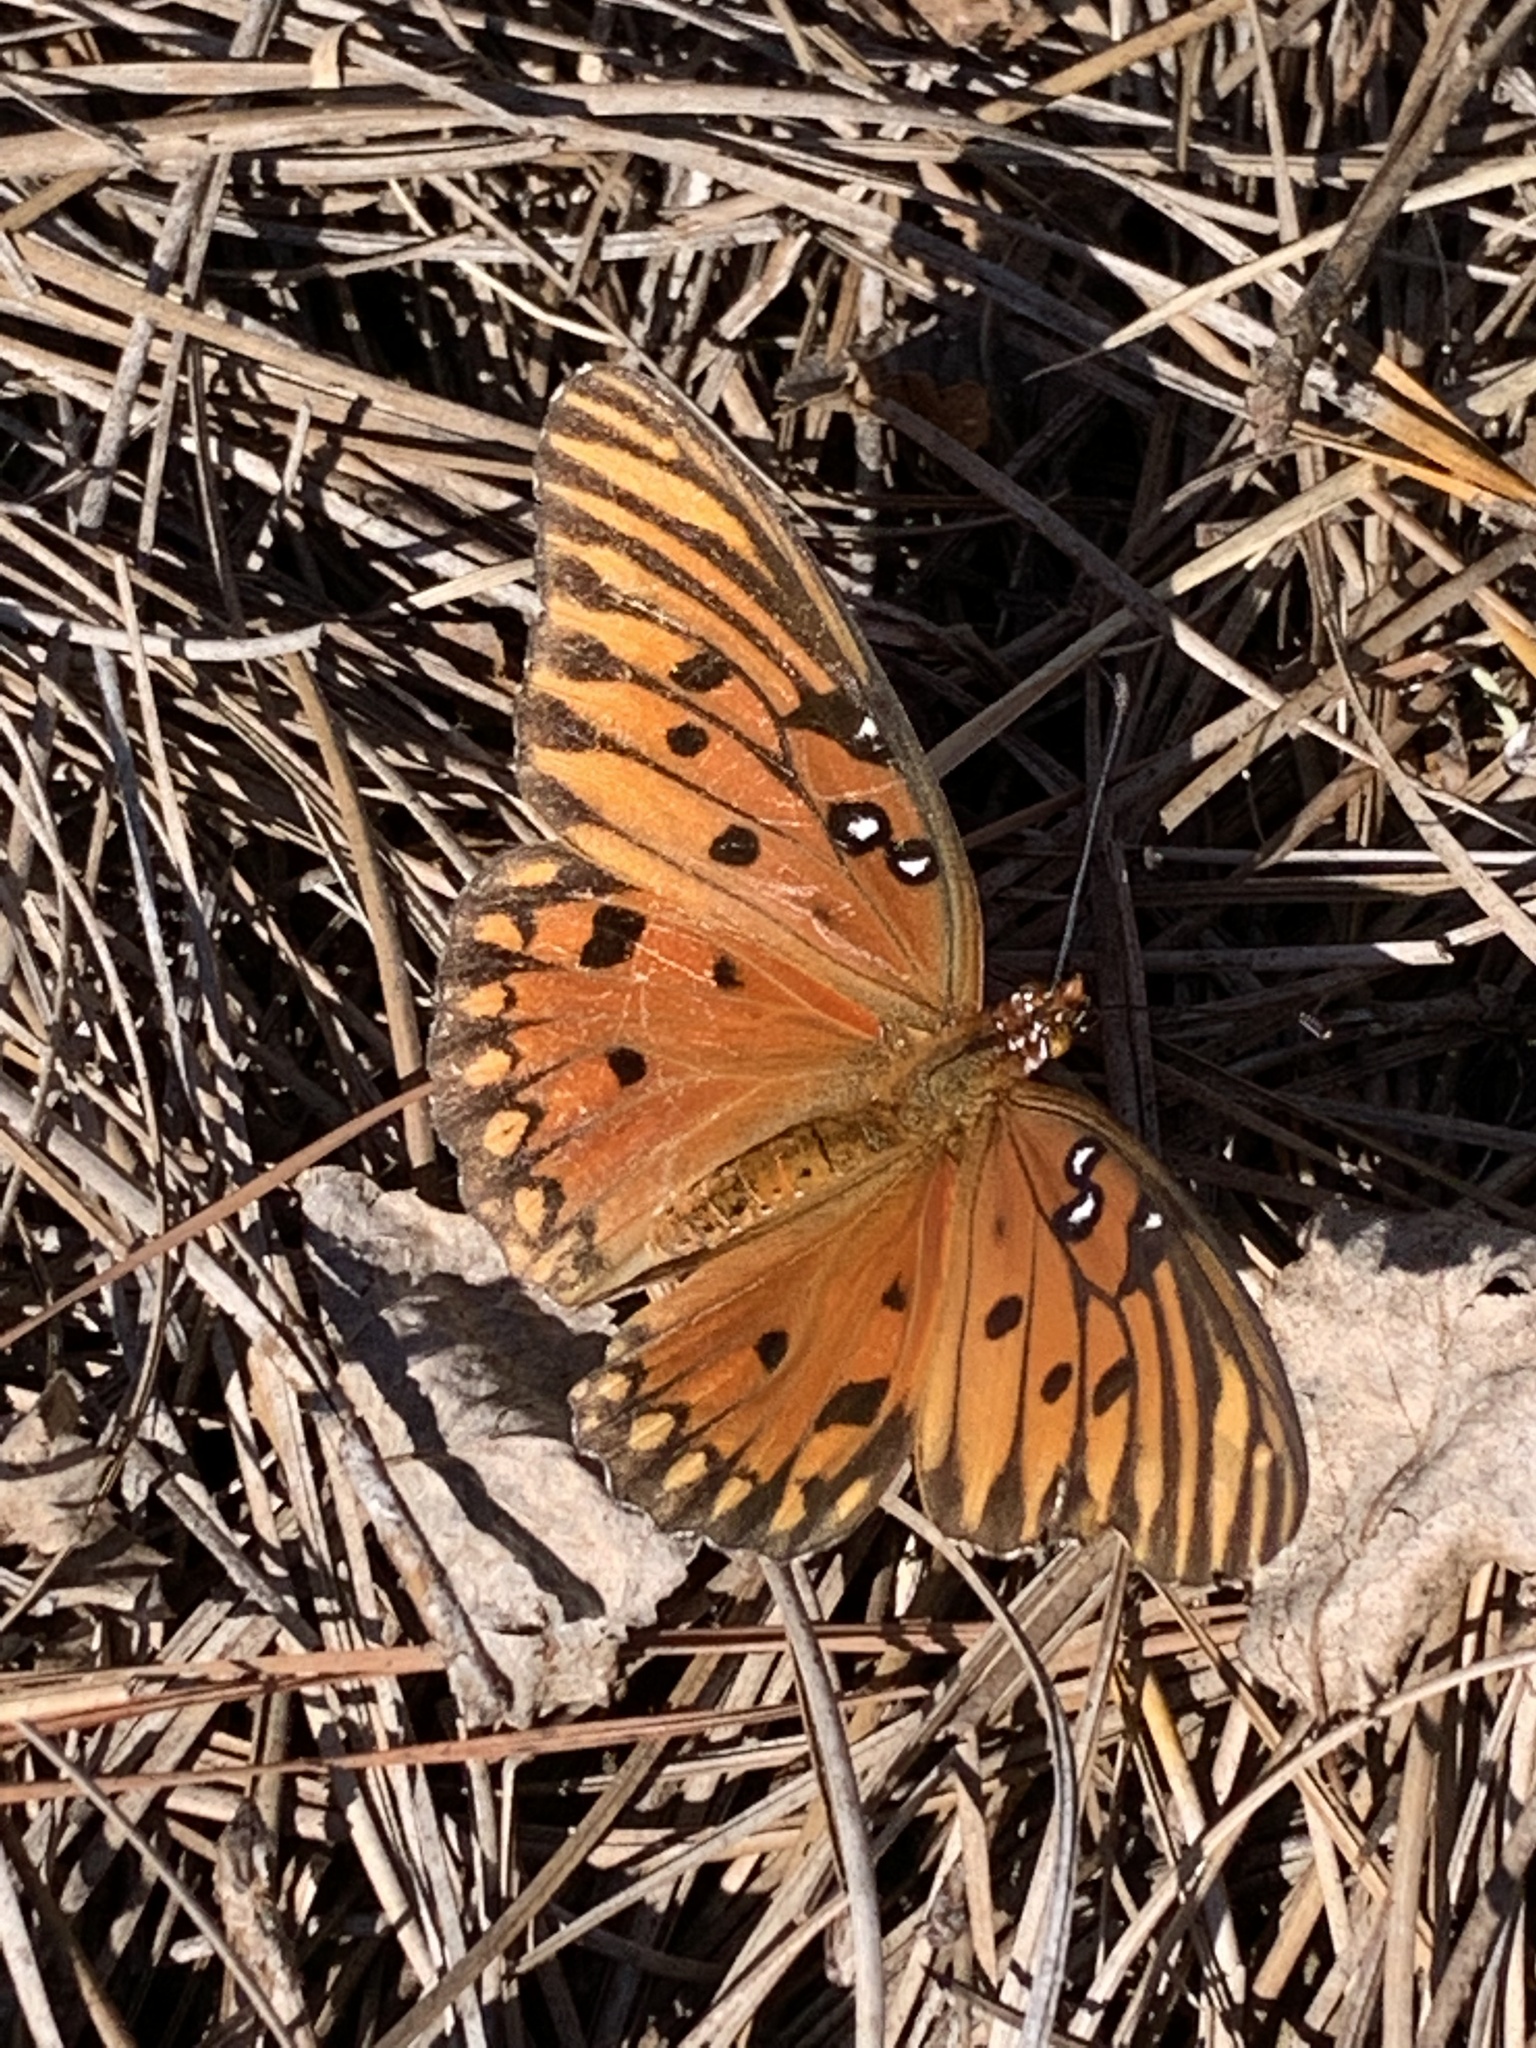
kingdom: Animalia
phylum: Arthropoda
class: Insecta
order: Lepidoptera
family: Nymphalidae
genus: Dione
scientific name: Dione vanillae
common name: Gulf fritillary
